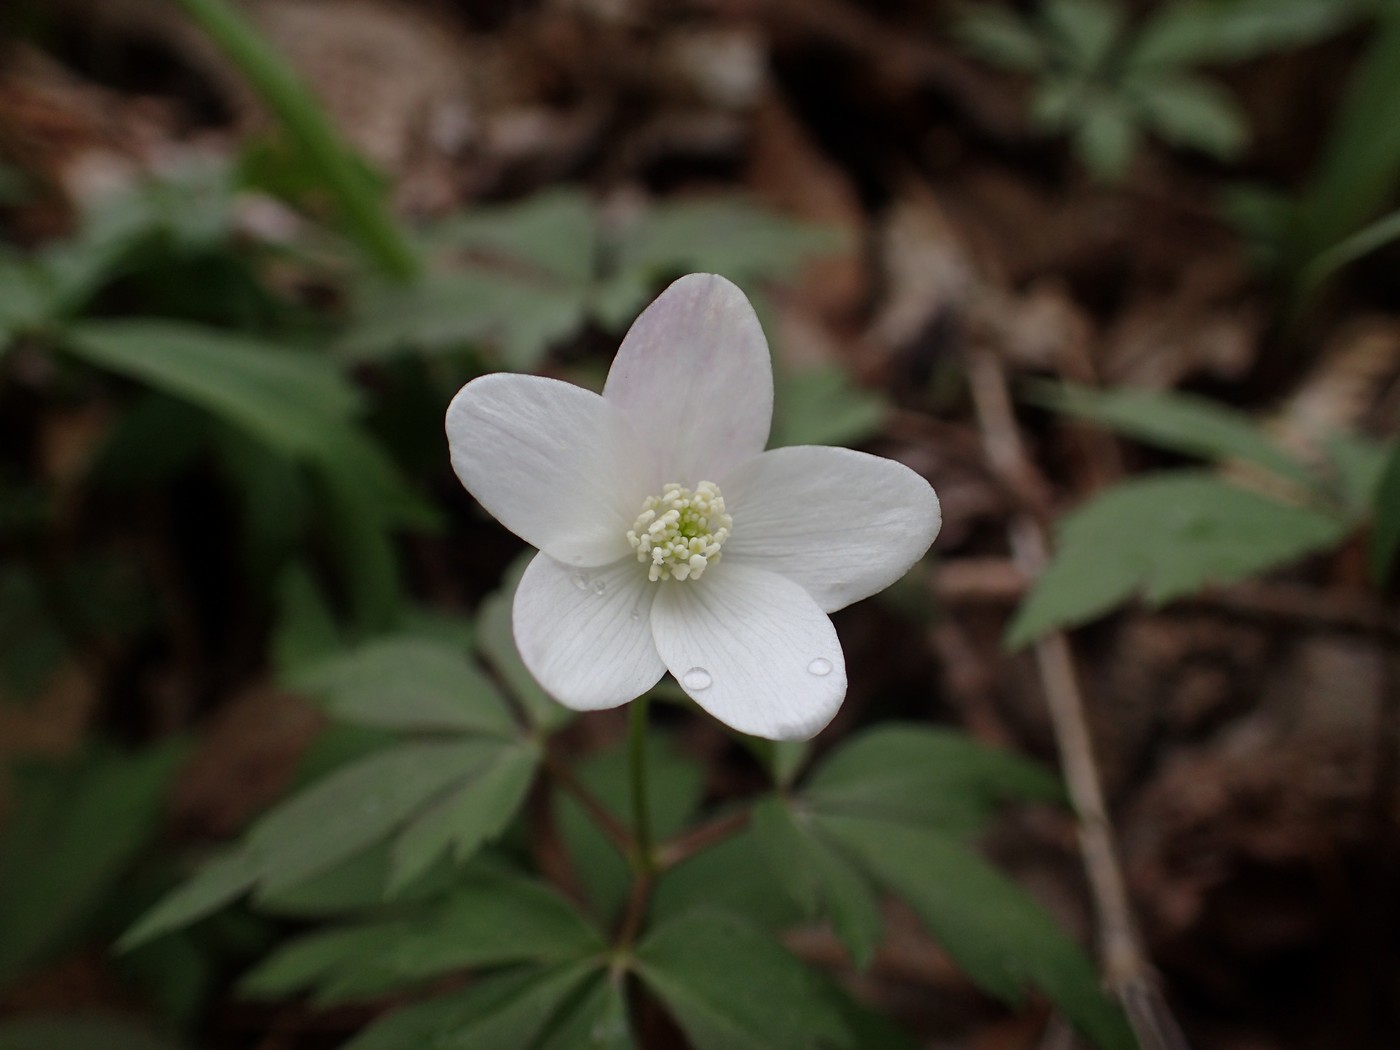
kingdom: Plantae
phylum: Tracheophyta
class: Magnoliopsida
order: Ranunculales
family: Ranunculaceae
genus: Anemone
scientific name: Anemone quinquefolia
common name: Wood anemone
